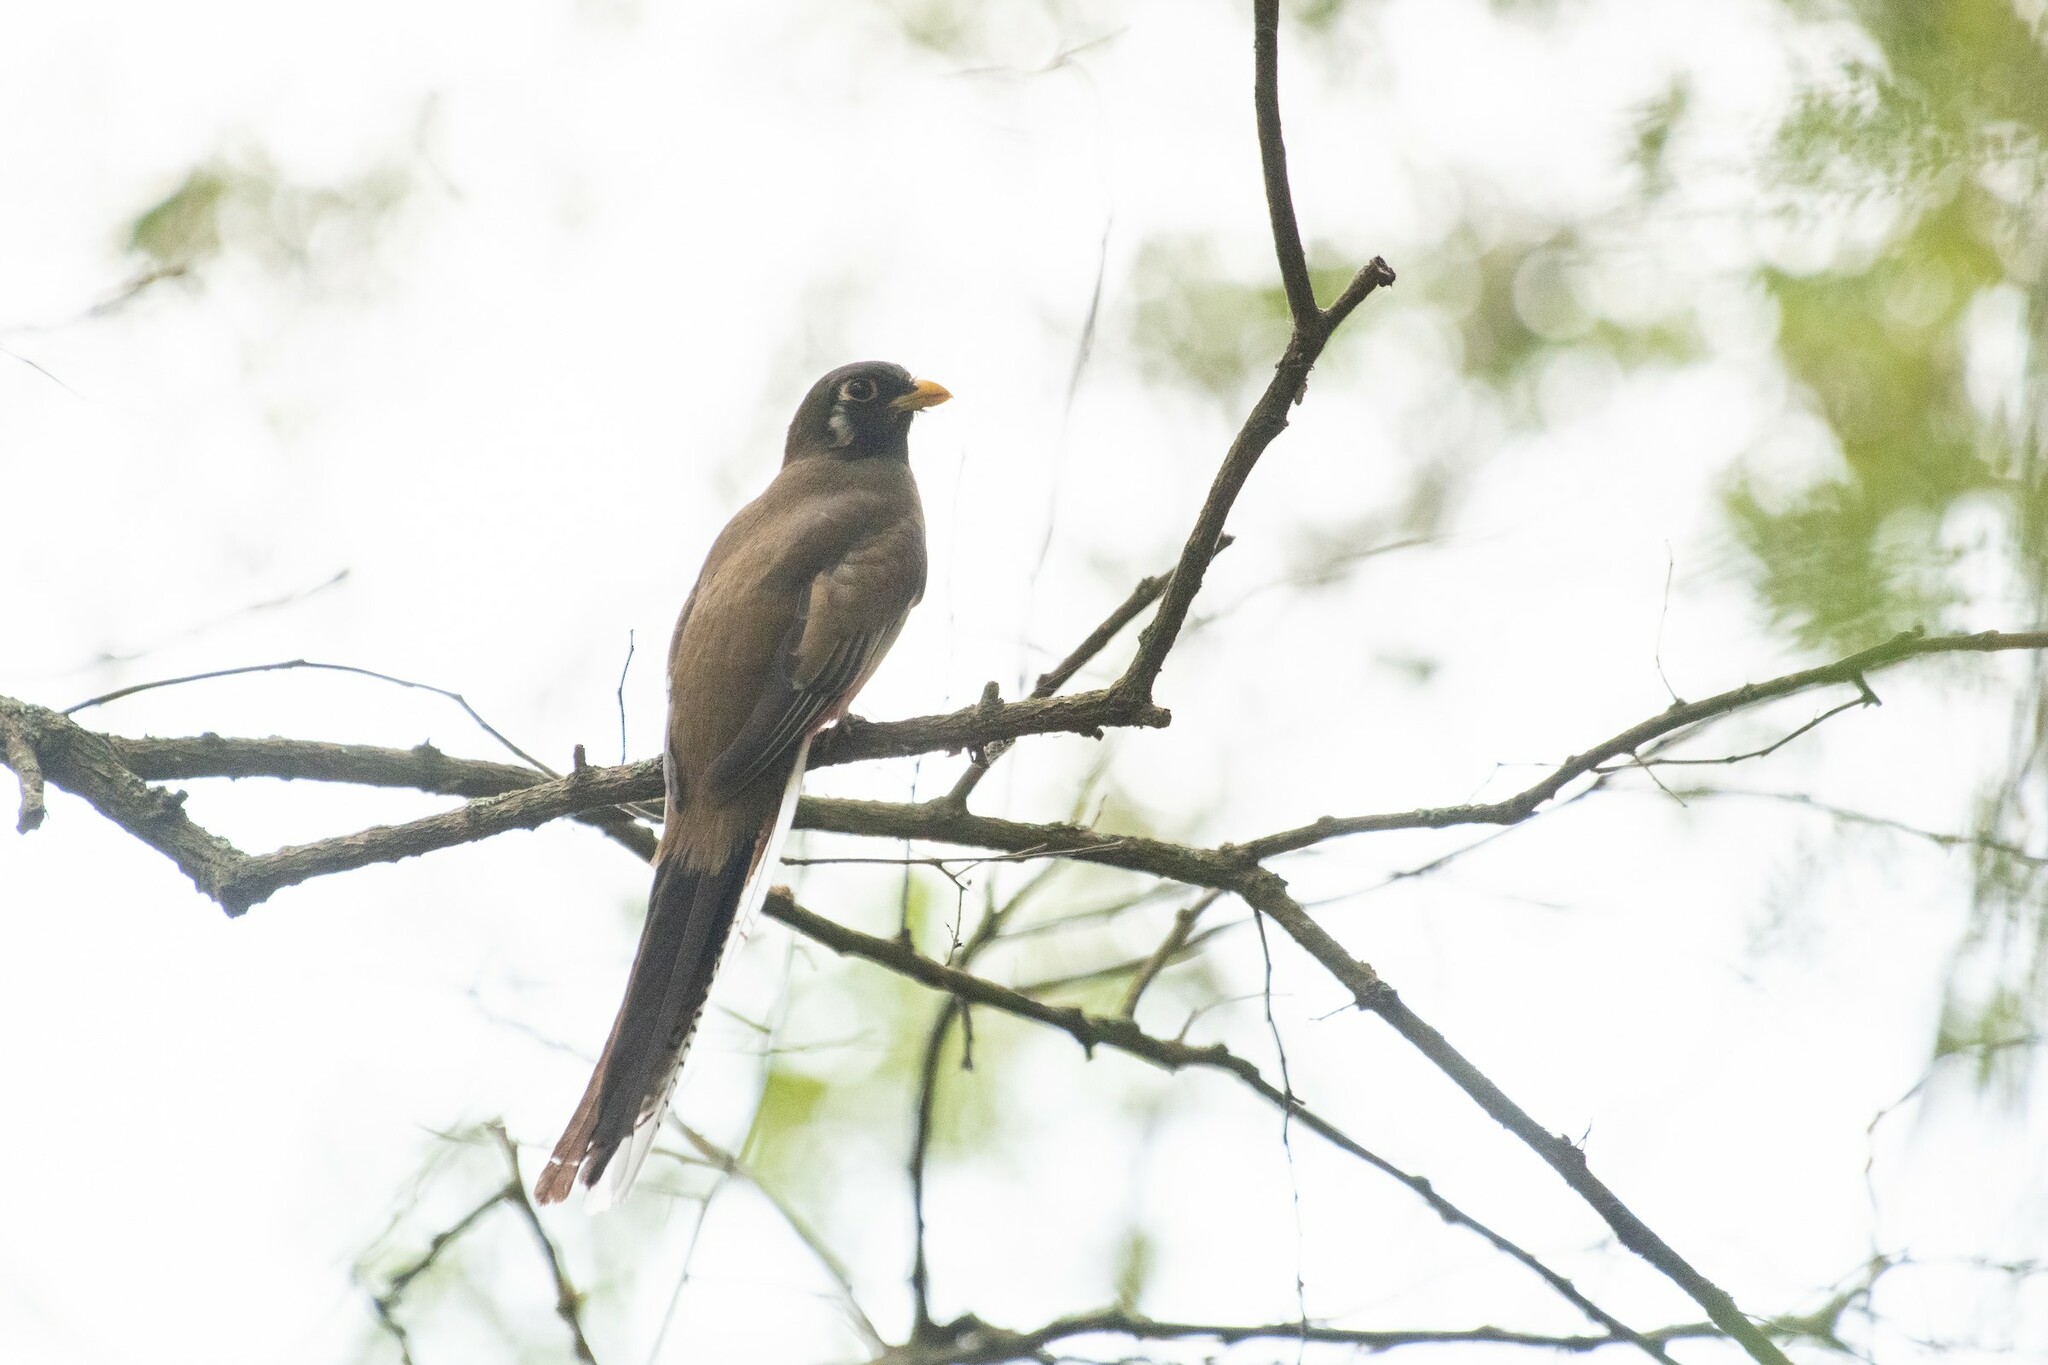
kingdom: Animalia
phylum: Chordata
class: Aves
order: Trogoniformes
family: Trogonidae
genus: Trogon
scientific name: Trogon elegans
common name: Elegant trogon
